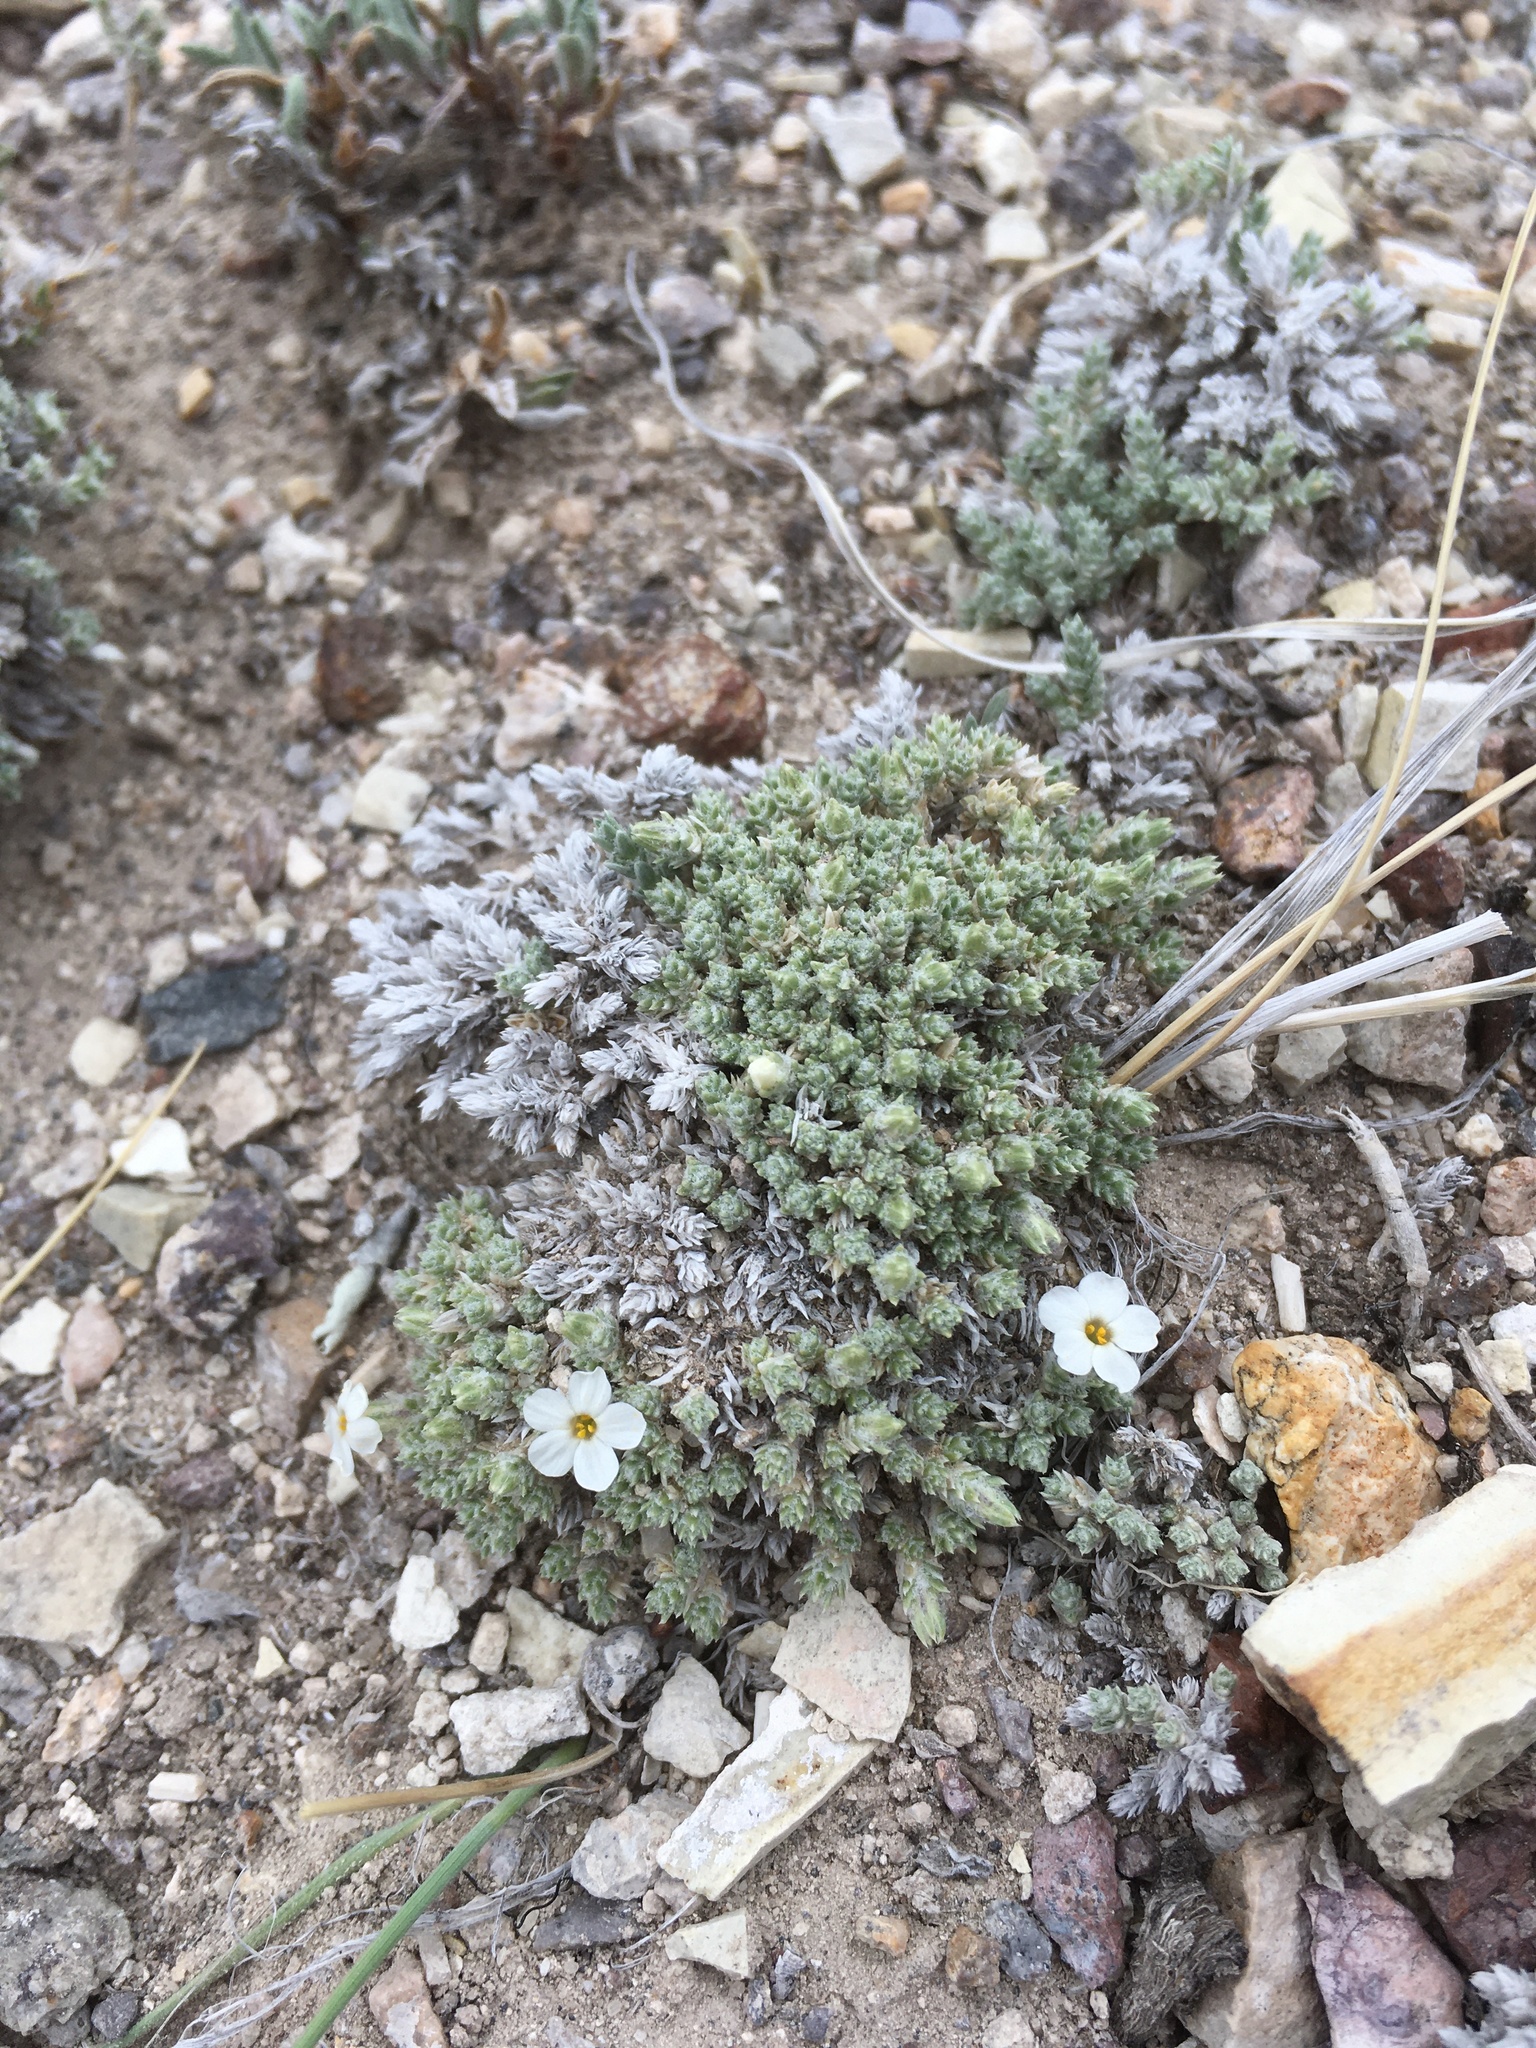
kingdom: Plantae
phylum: Tracheophyta
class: Magnoliopsida
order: Ericales
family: Polemoniaceae
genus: Phlox
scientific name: Phlox hoodii
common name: Moss phlox
